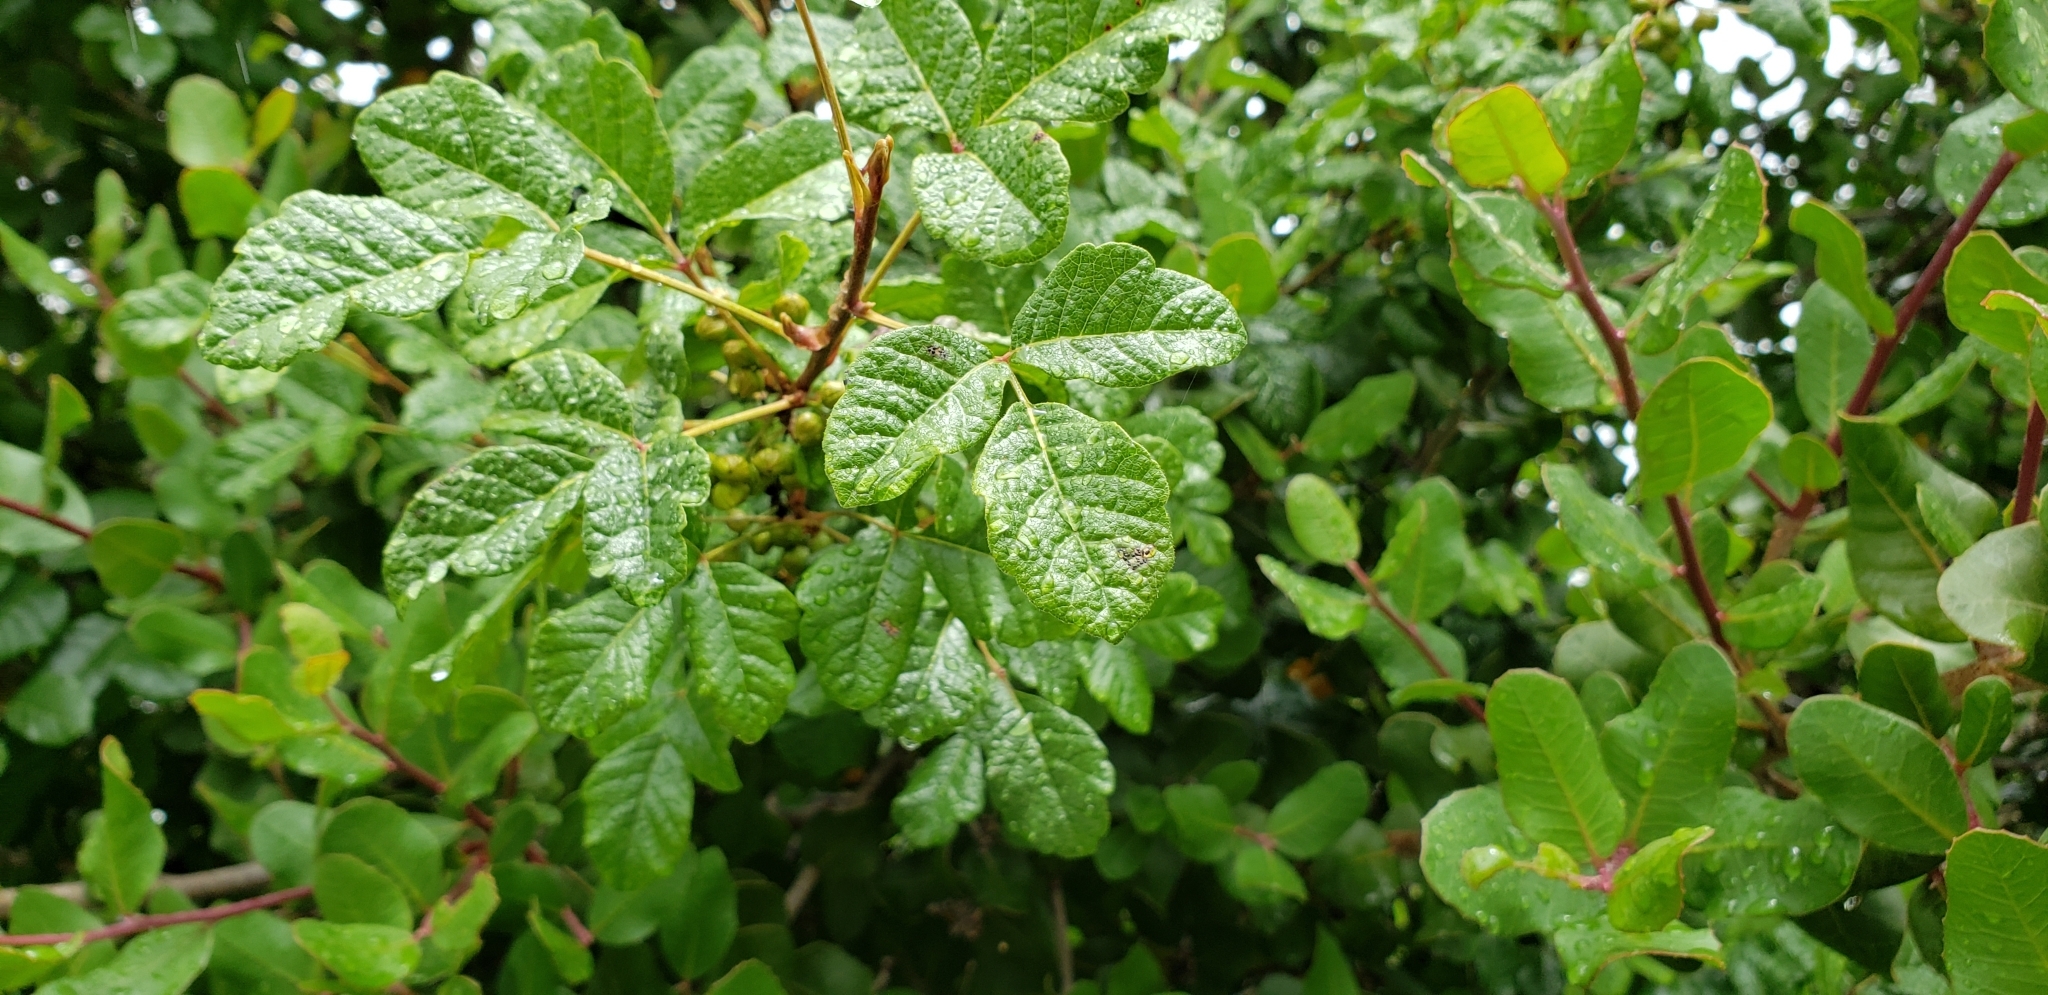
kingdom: Plantae
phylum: Tracheophyta
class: Magnoliopsida
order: Sapindales
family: Anacardiaceae
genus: Toxicodendron
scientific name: Toxicodendron diversilobum
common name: Pacific poison-oak
